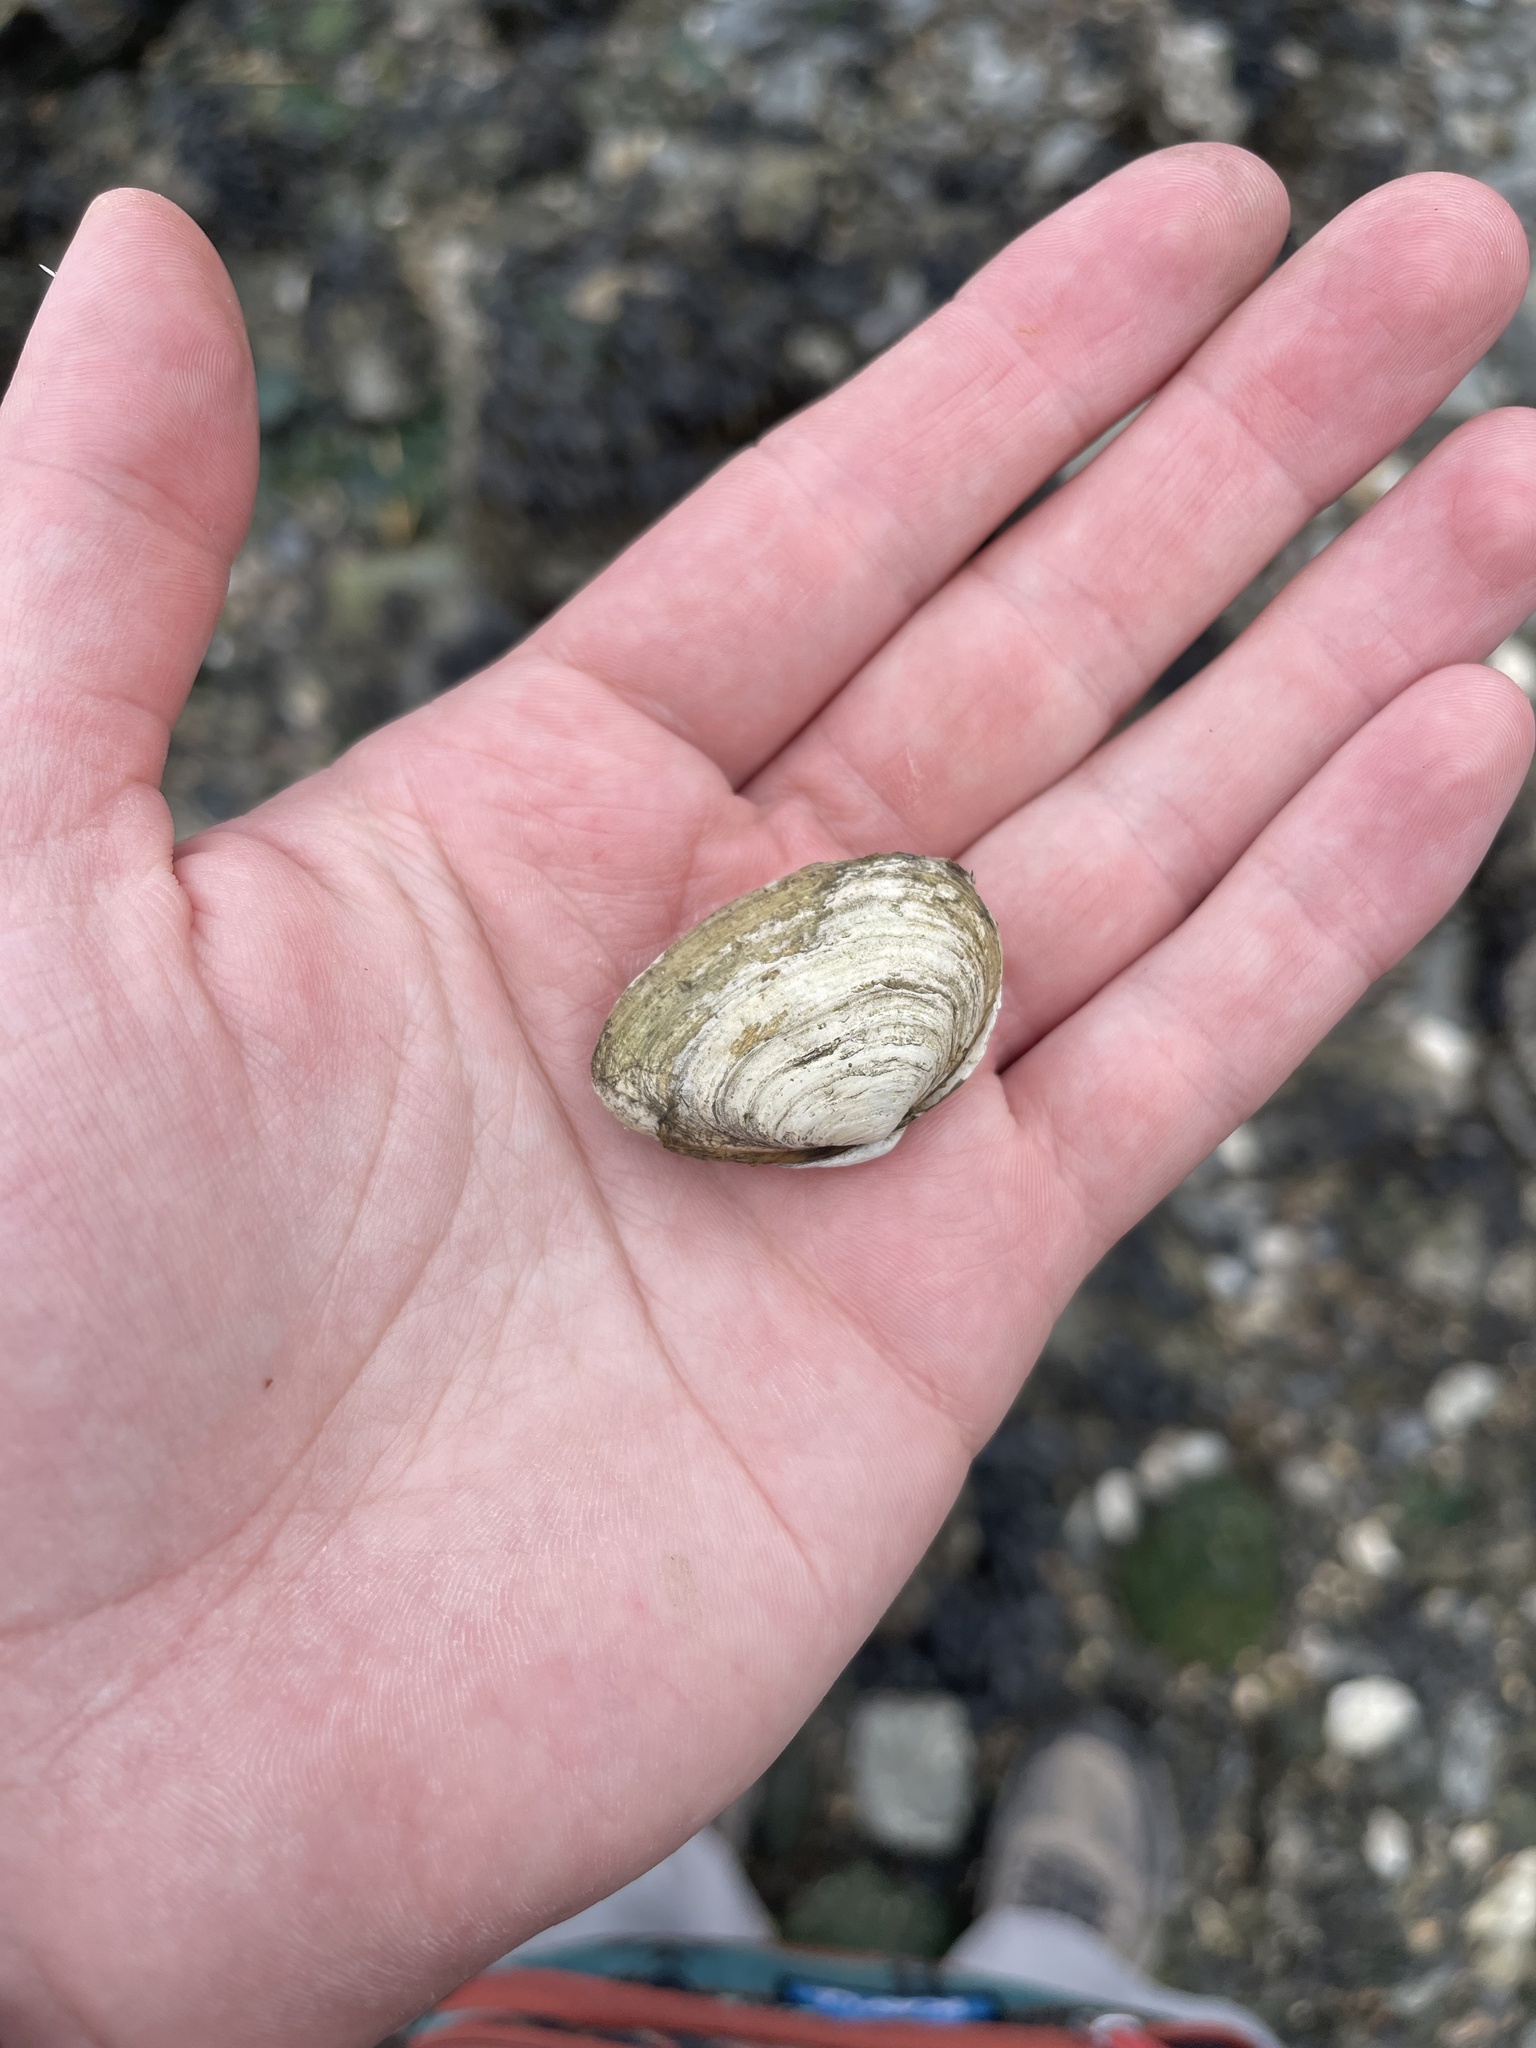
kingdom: Animalia
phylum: Mollusca
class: Bivalvia
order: Myida
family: Myidae
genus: Mya
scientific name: Mya arenaria
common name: Soft-shelled clam
